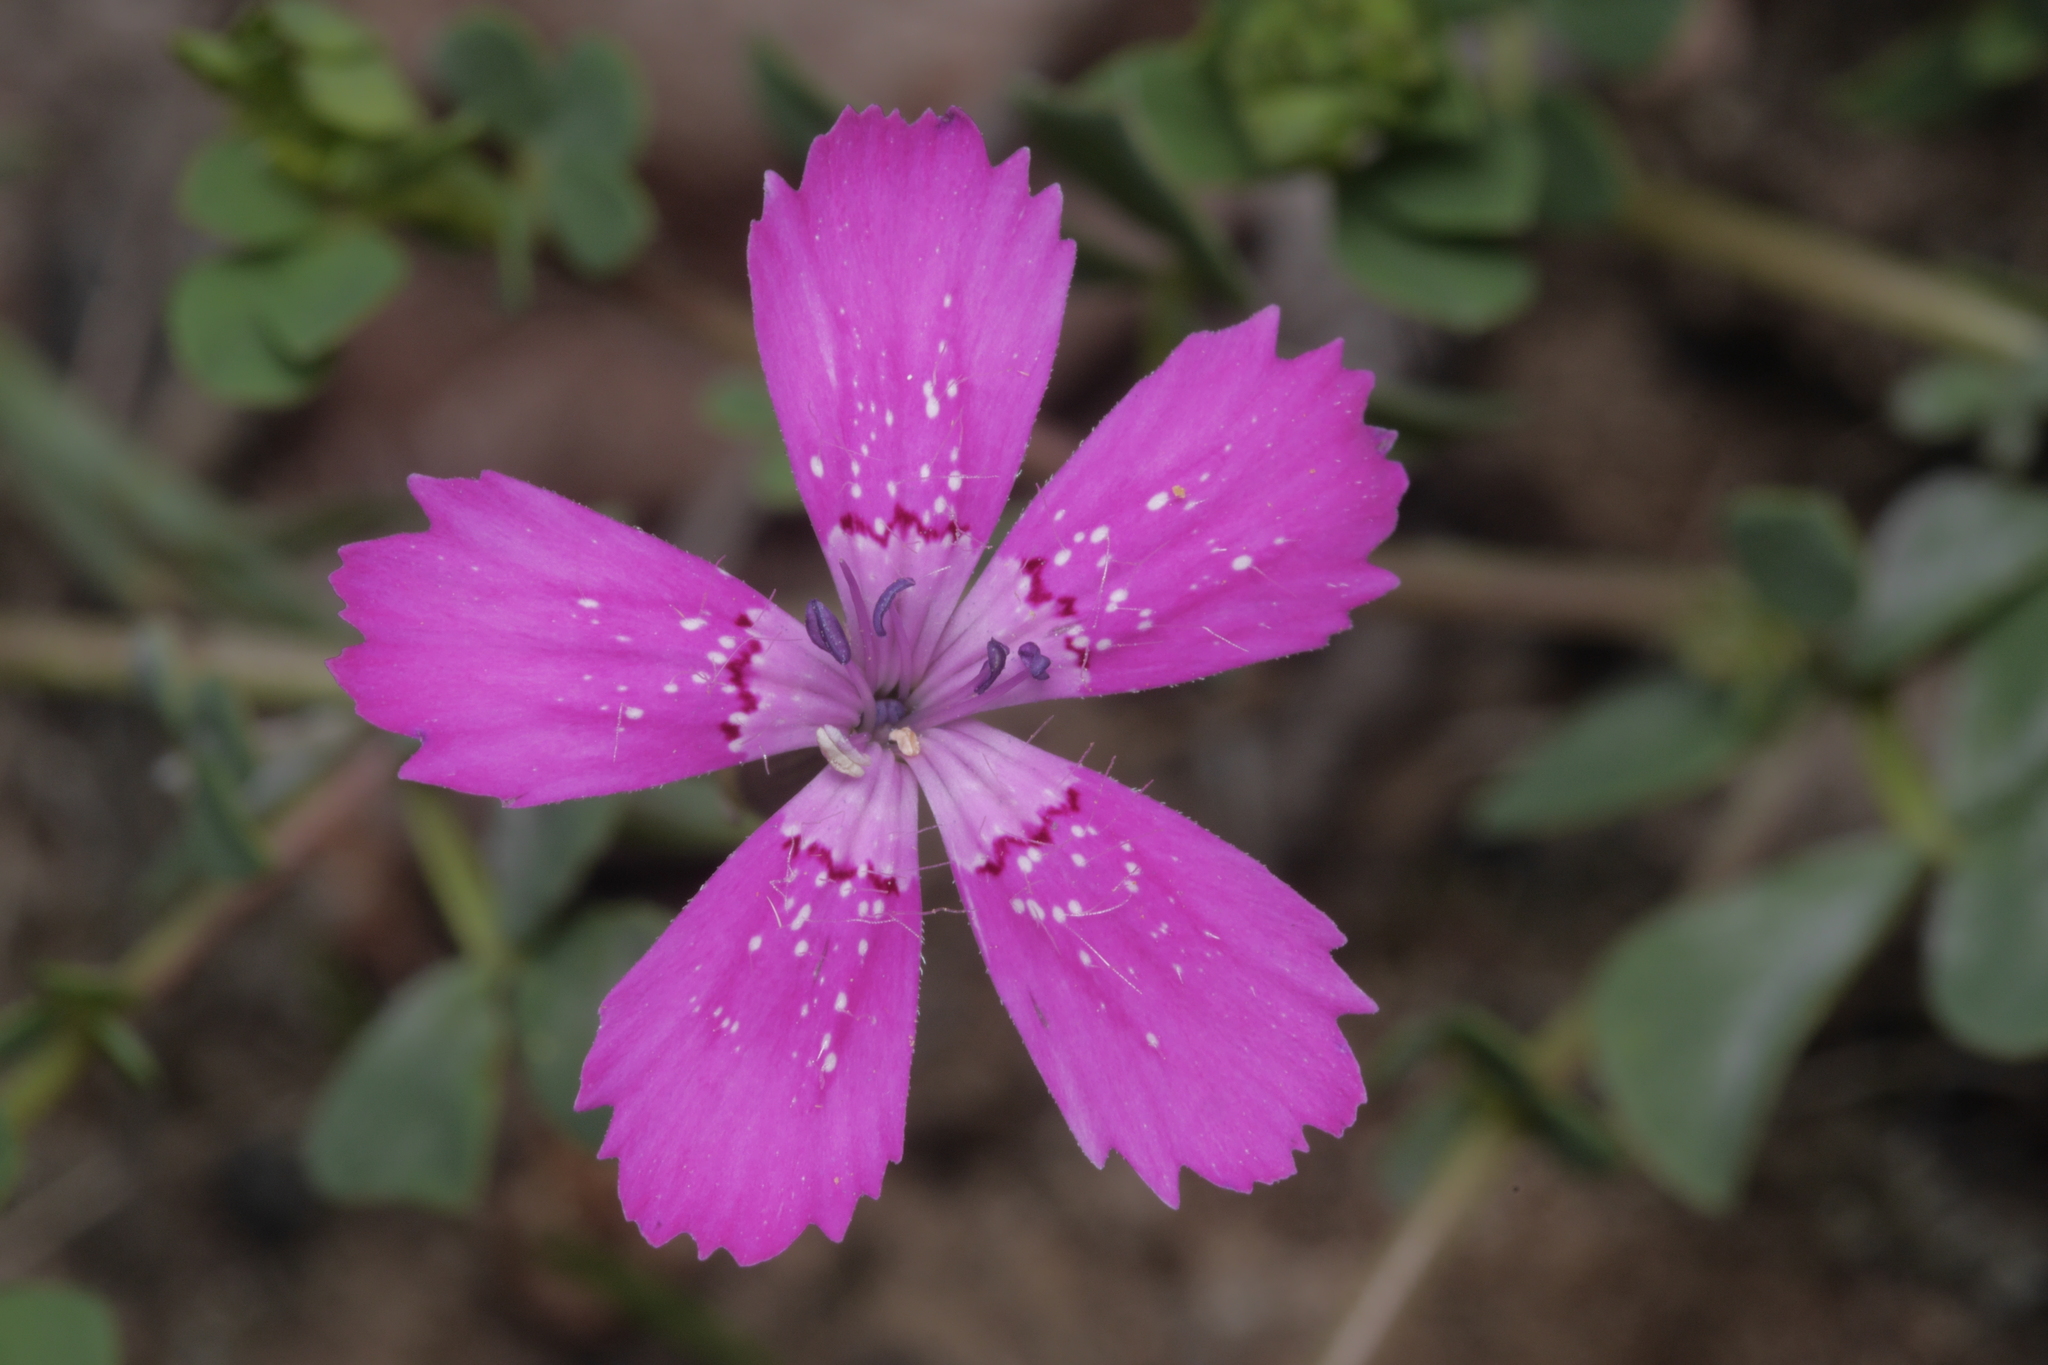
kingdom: Plantae
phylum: Tracheophyta
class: Magnoliopsida
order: Caryophyllales
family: Caryophyllaceae
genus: Dianthus
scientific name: Dianthus deltoides
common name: Maiden pink
